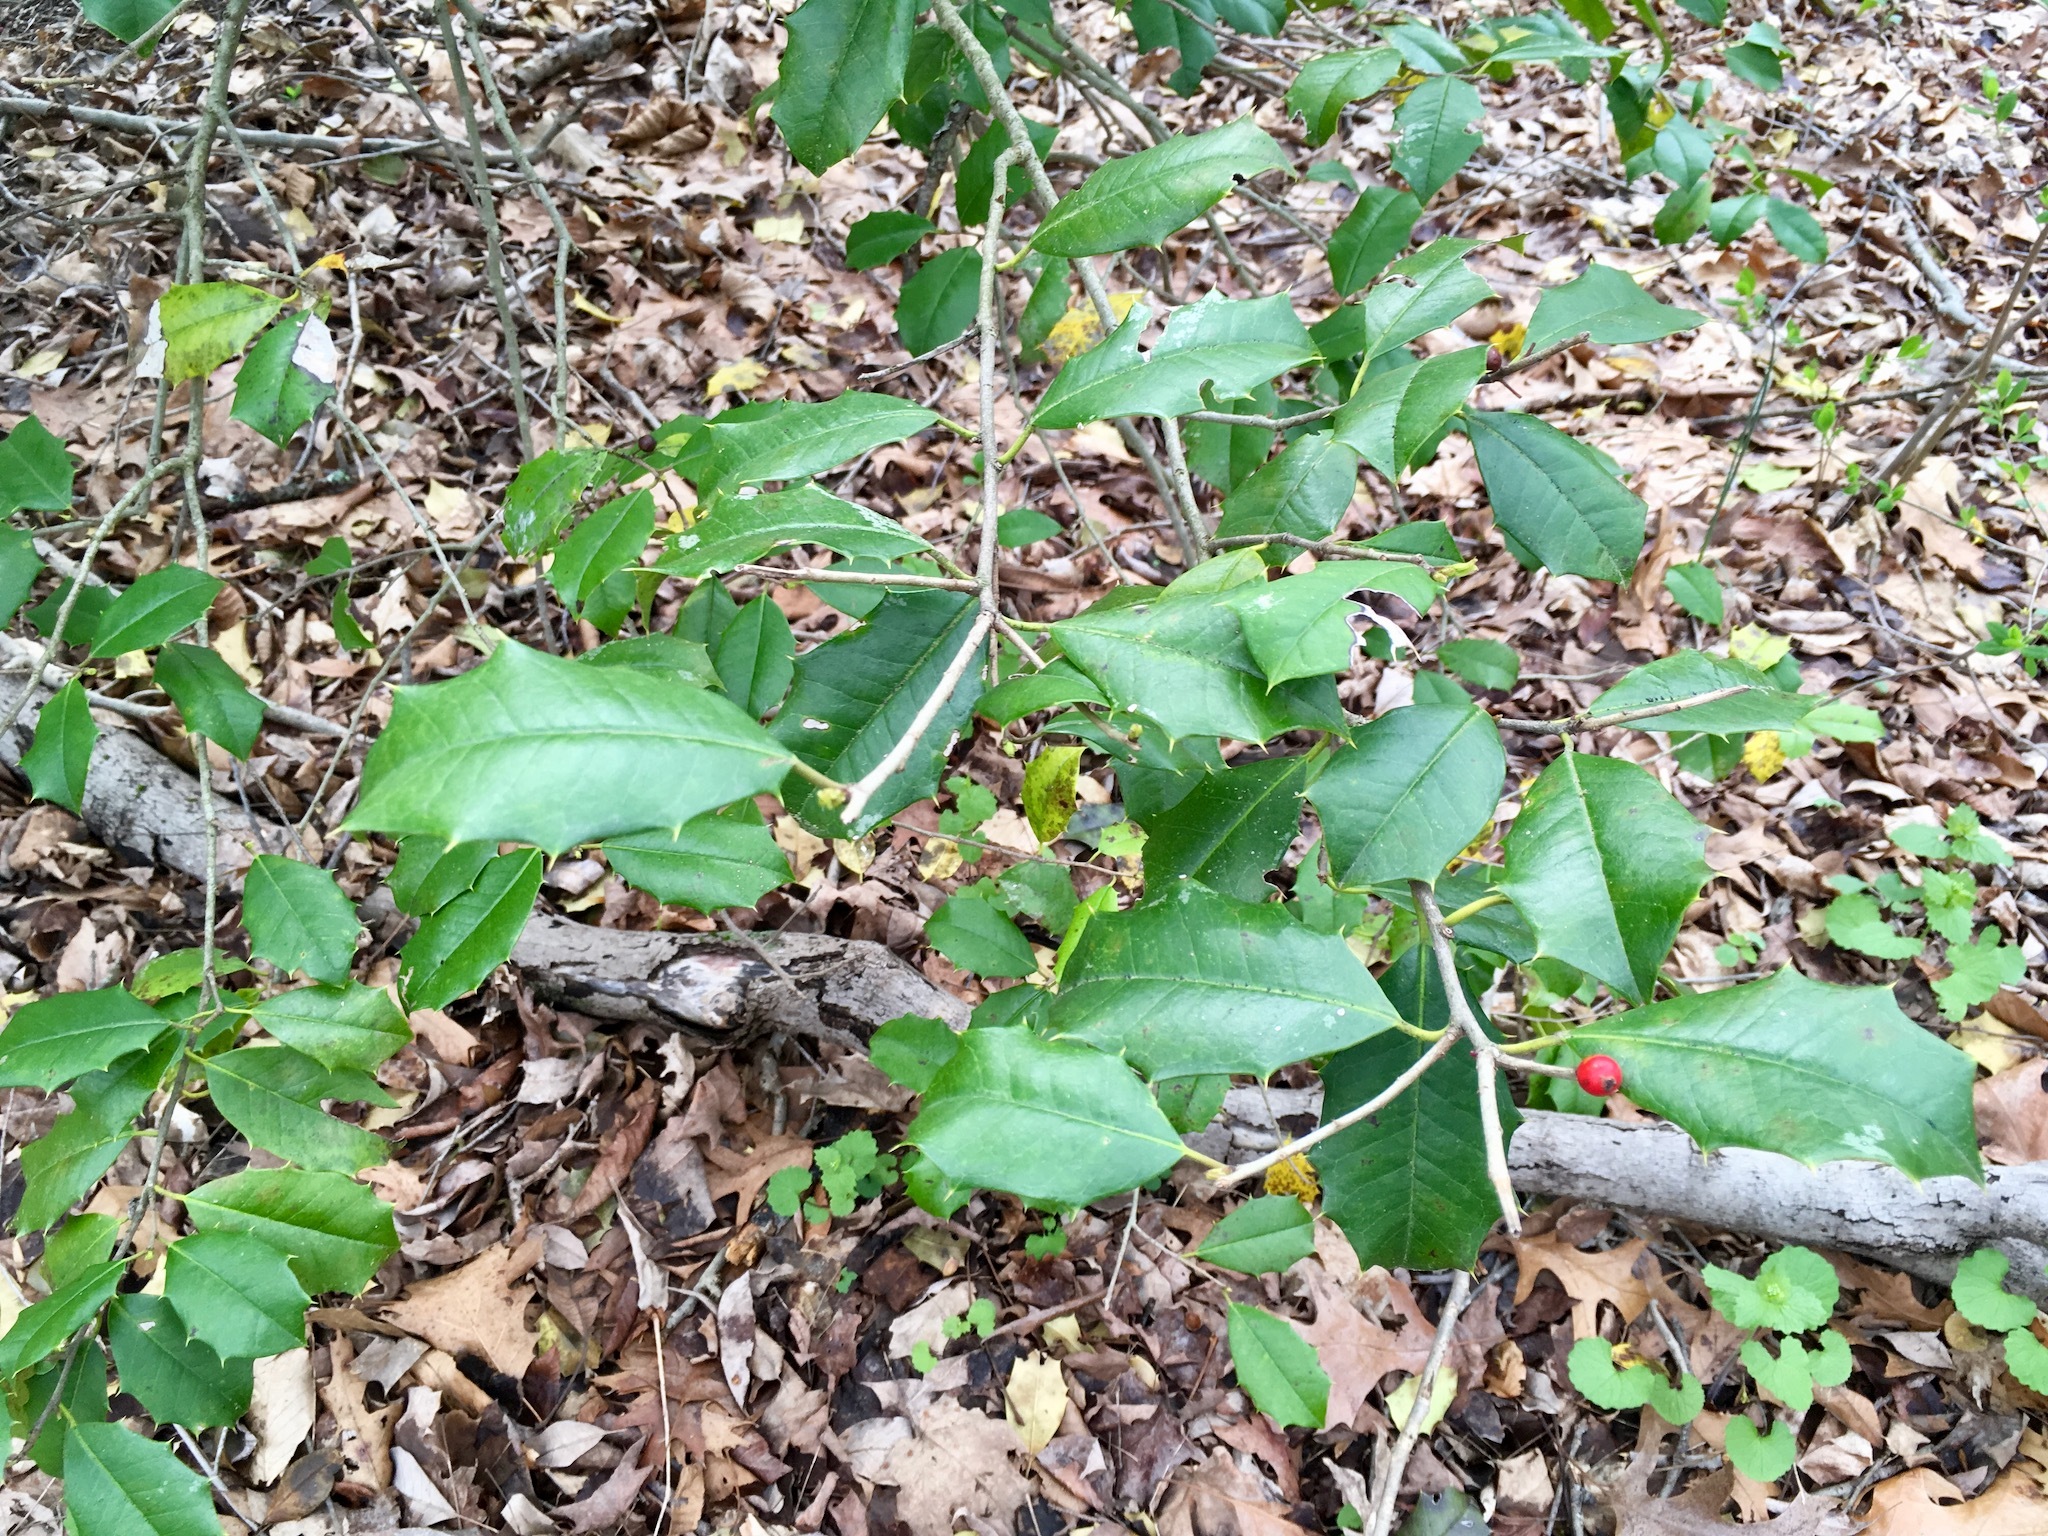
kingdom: Plantae
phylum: Tracheophyta
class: Magnoliopsida
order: Aquifoliales
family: Aquifoliaceae
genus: Ilex
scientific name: Ilex opaca
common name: American holly
